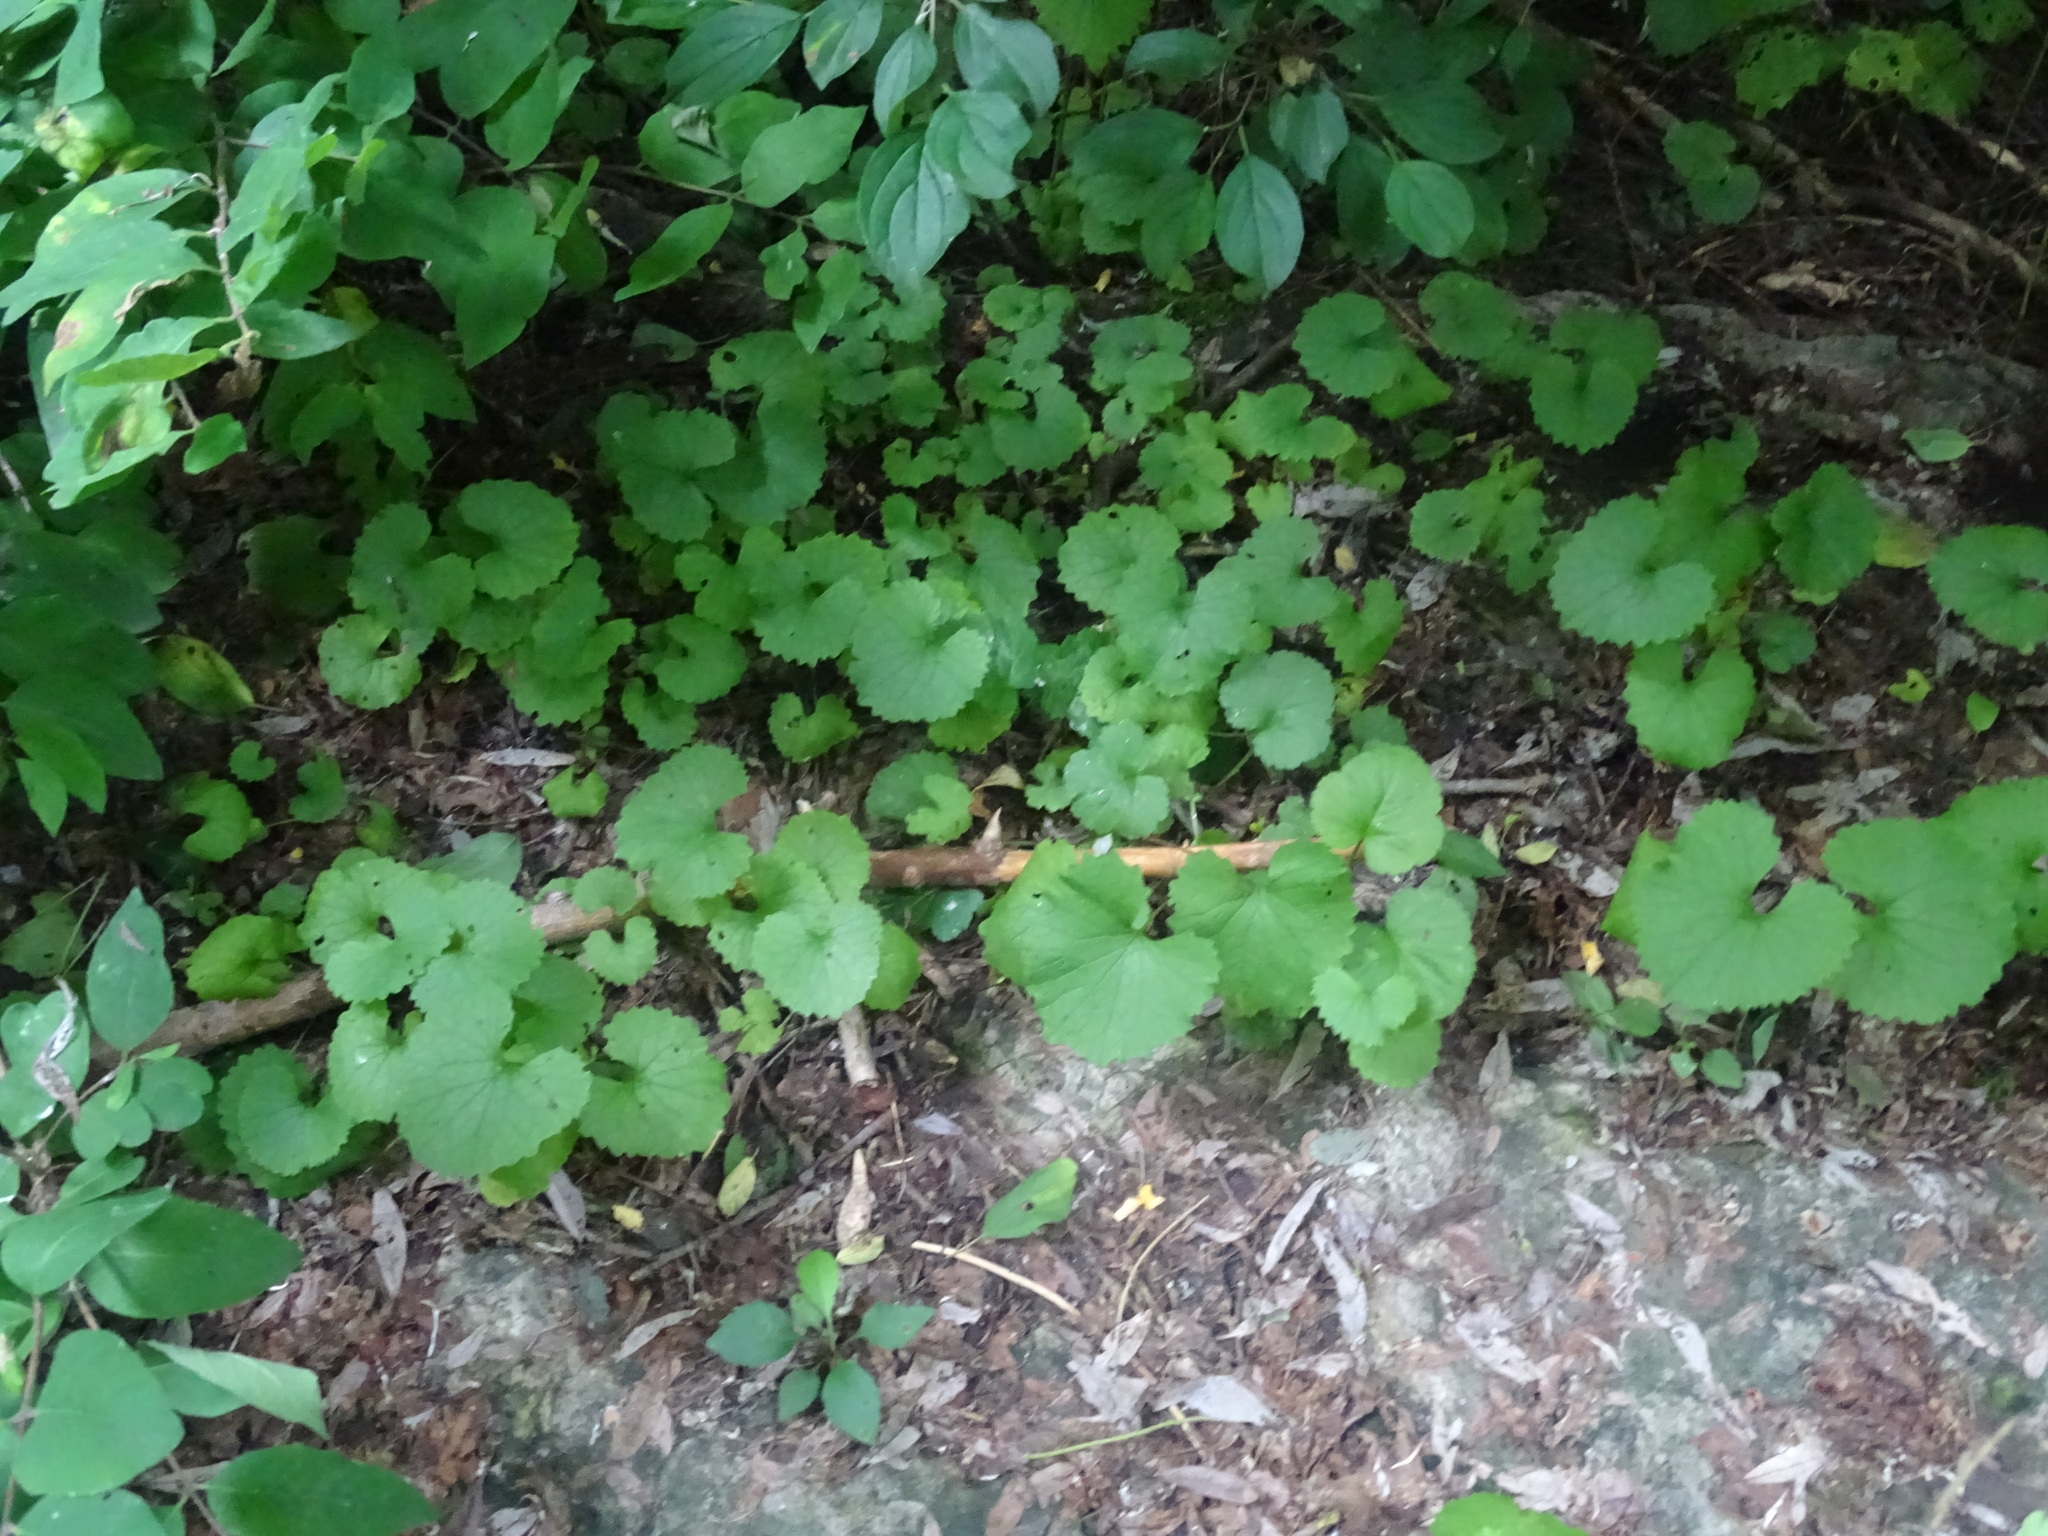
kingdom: Plantae
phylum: Tracheophyta
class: Magnoliopsida
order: Brassicales
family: Brassicaceae
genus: Alliaria
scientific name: Alliaria petiolata
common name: Garlic mustard
